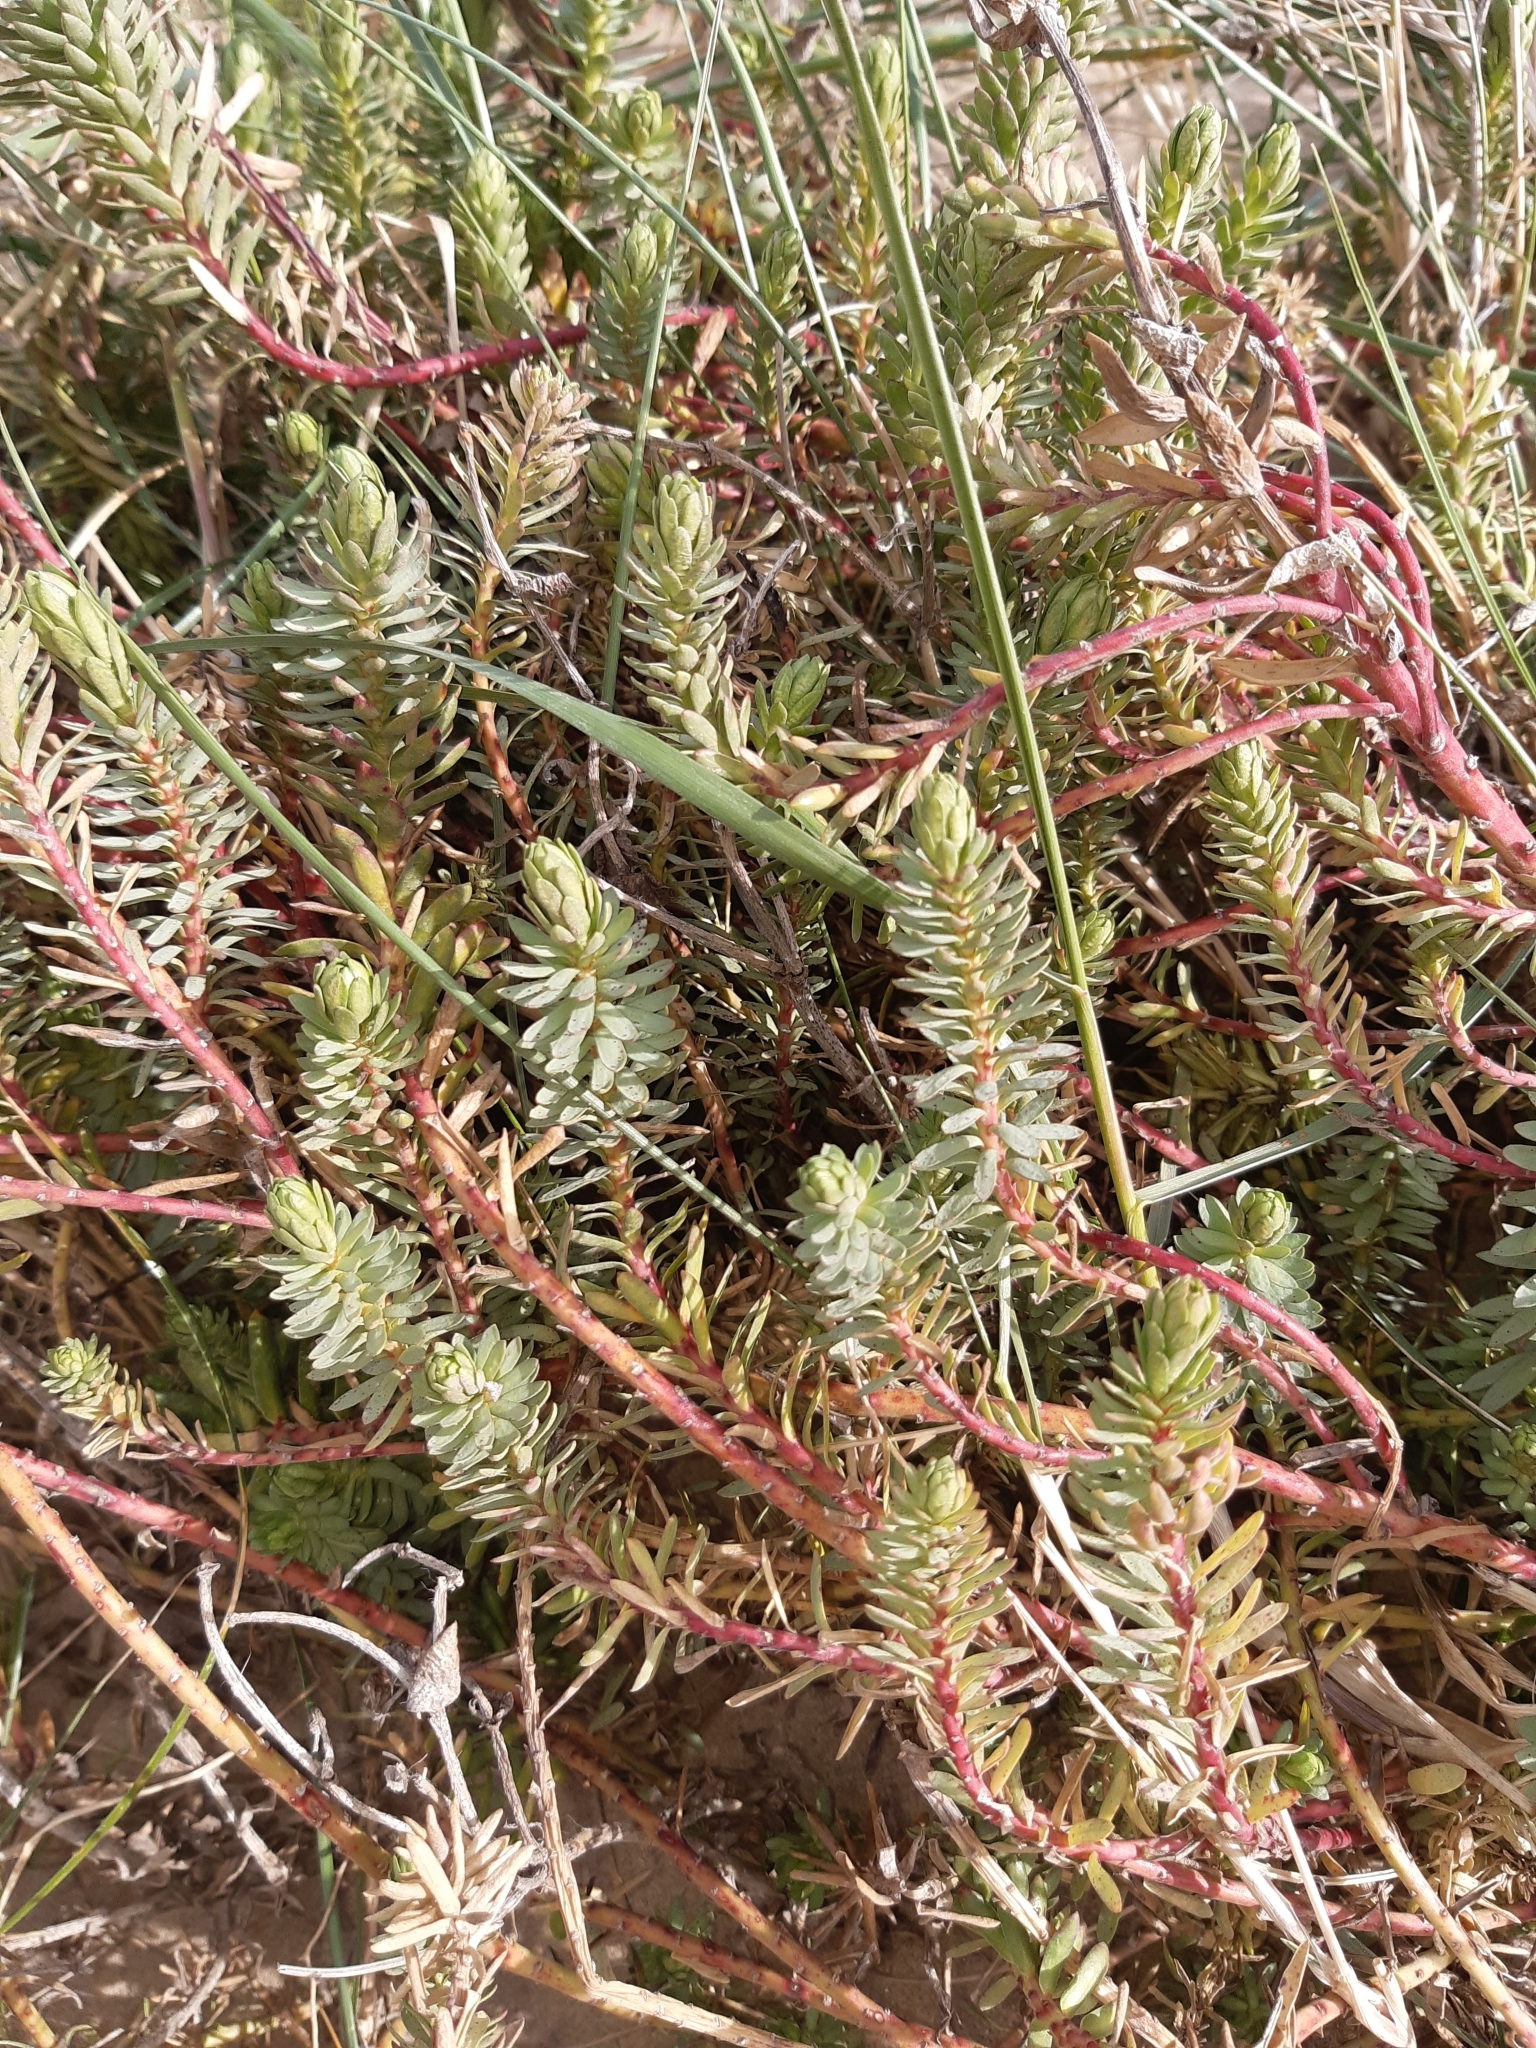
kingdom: Plantae
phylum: Tracheophyta
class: Magnoliopsida
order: Malpighiales
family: Euphorbiaceae
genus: Euphorbia
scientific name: Euphorbia paralias
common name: Sea spurge
